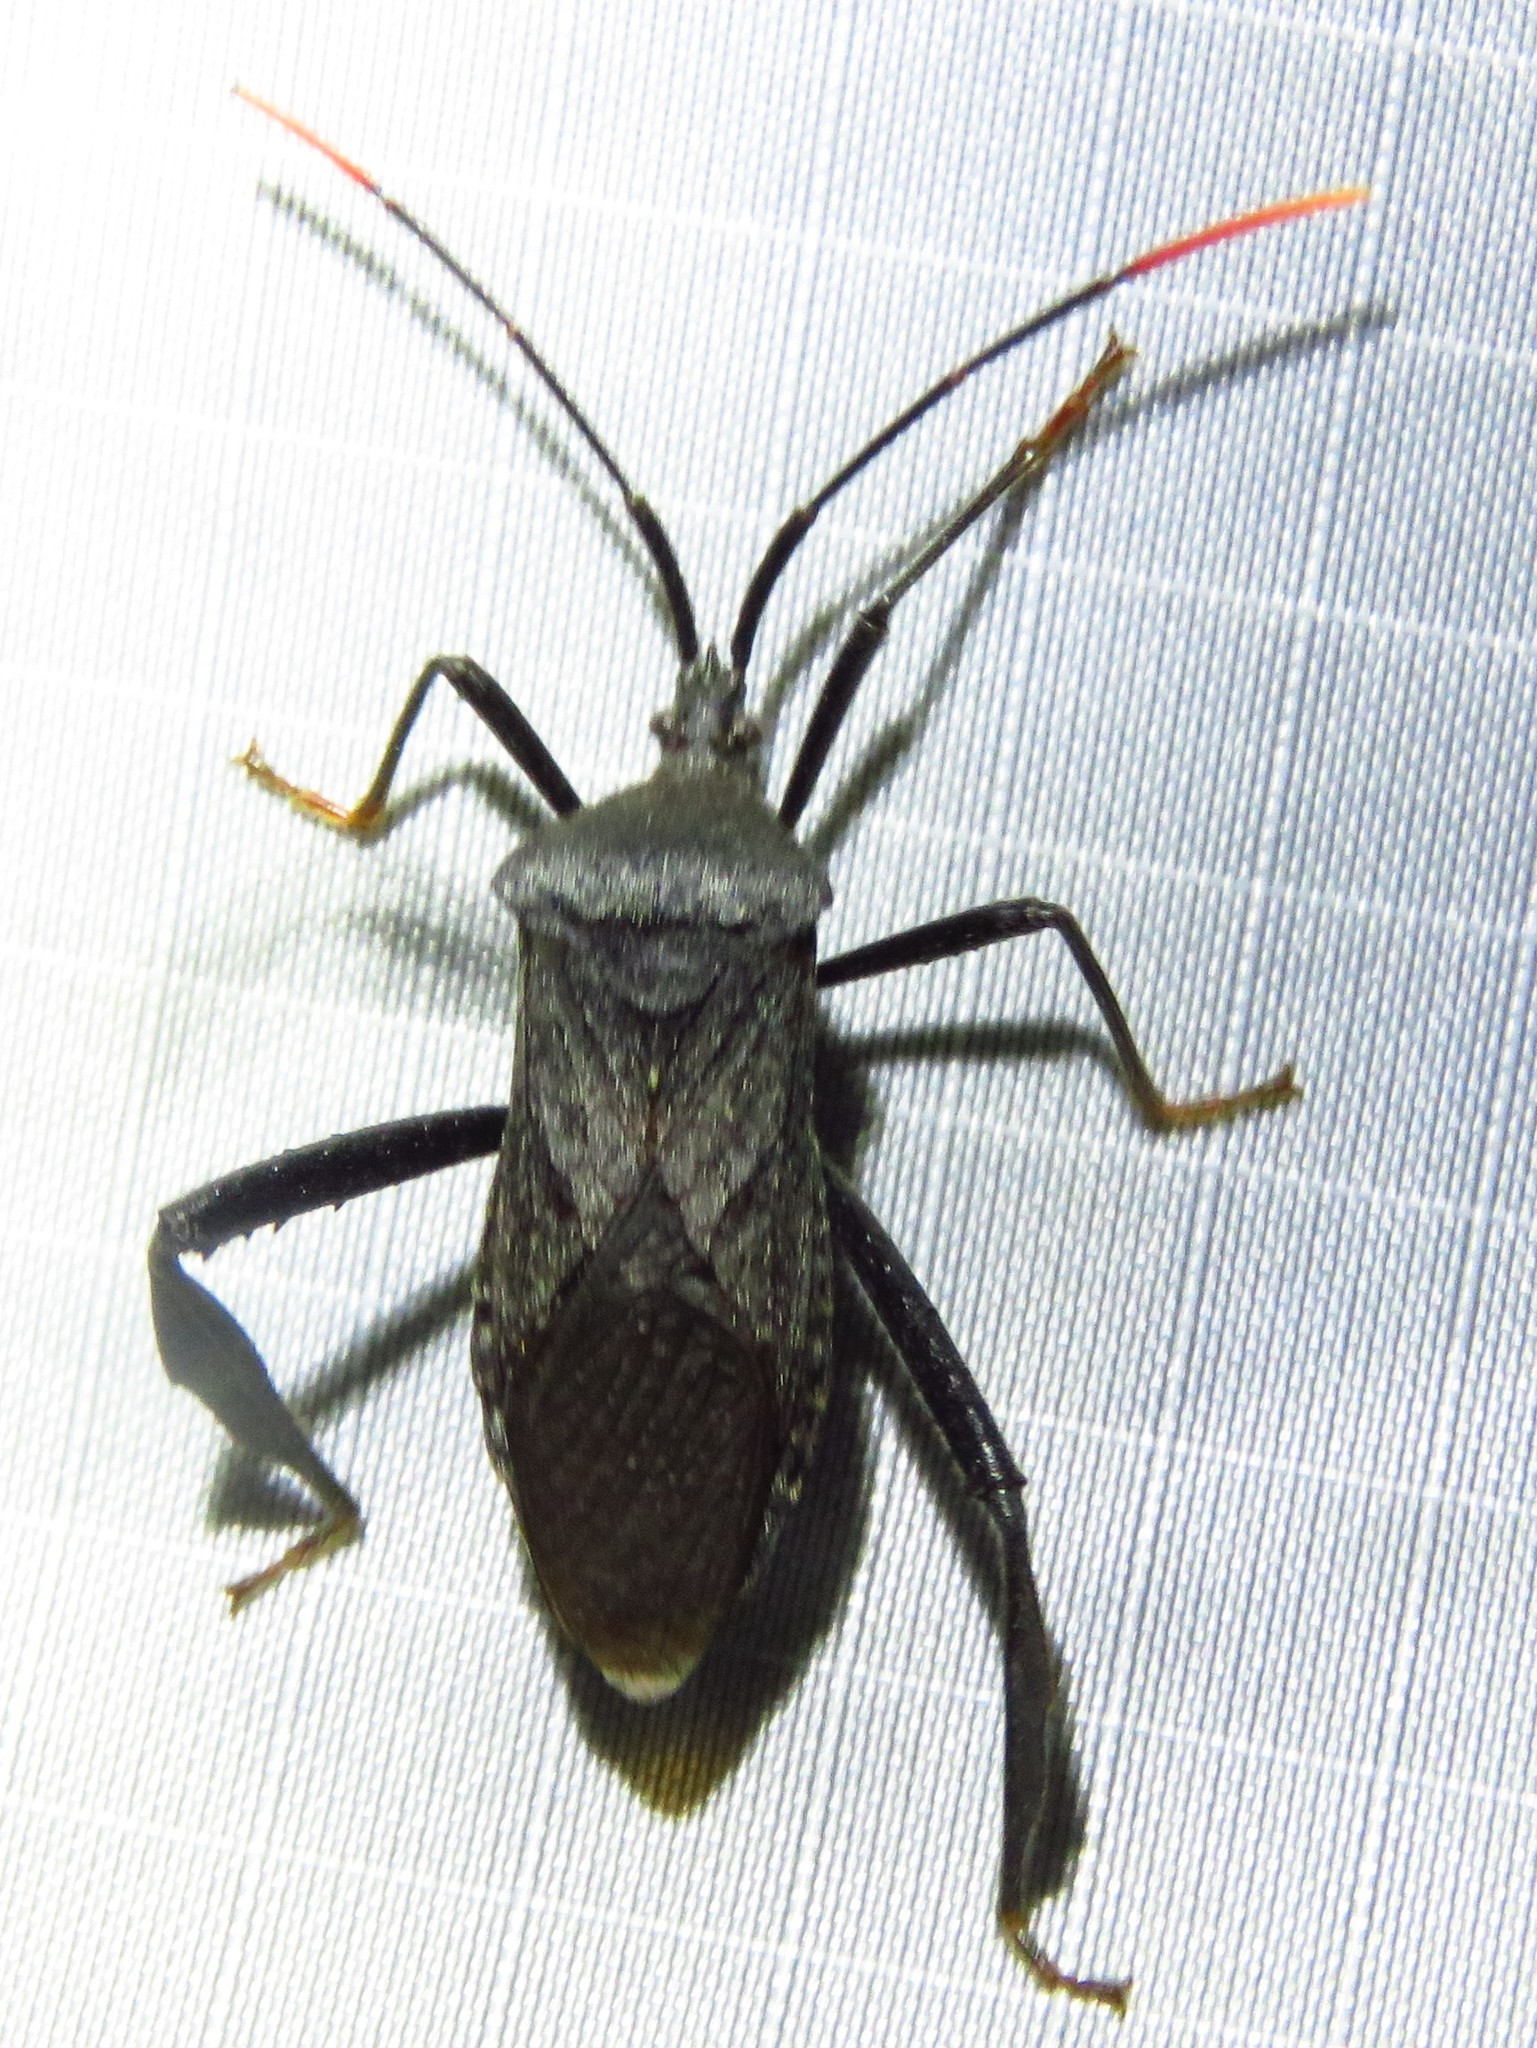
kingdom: Animalia
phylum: Arthropoda
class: Insecta
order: Hemiptera
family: Coreidae
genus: Acanthocephala
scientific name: Acanthocephala terminalis
